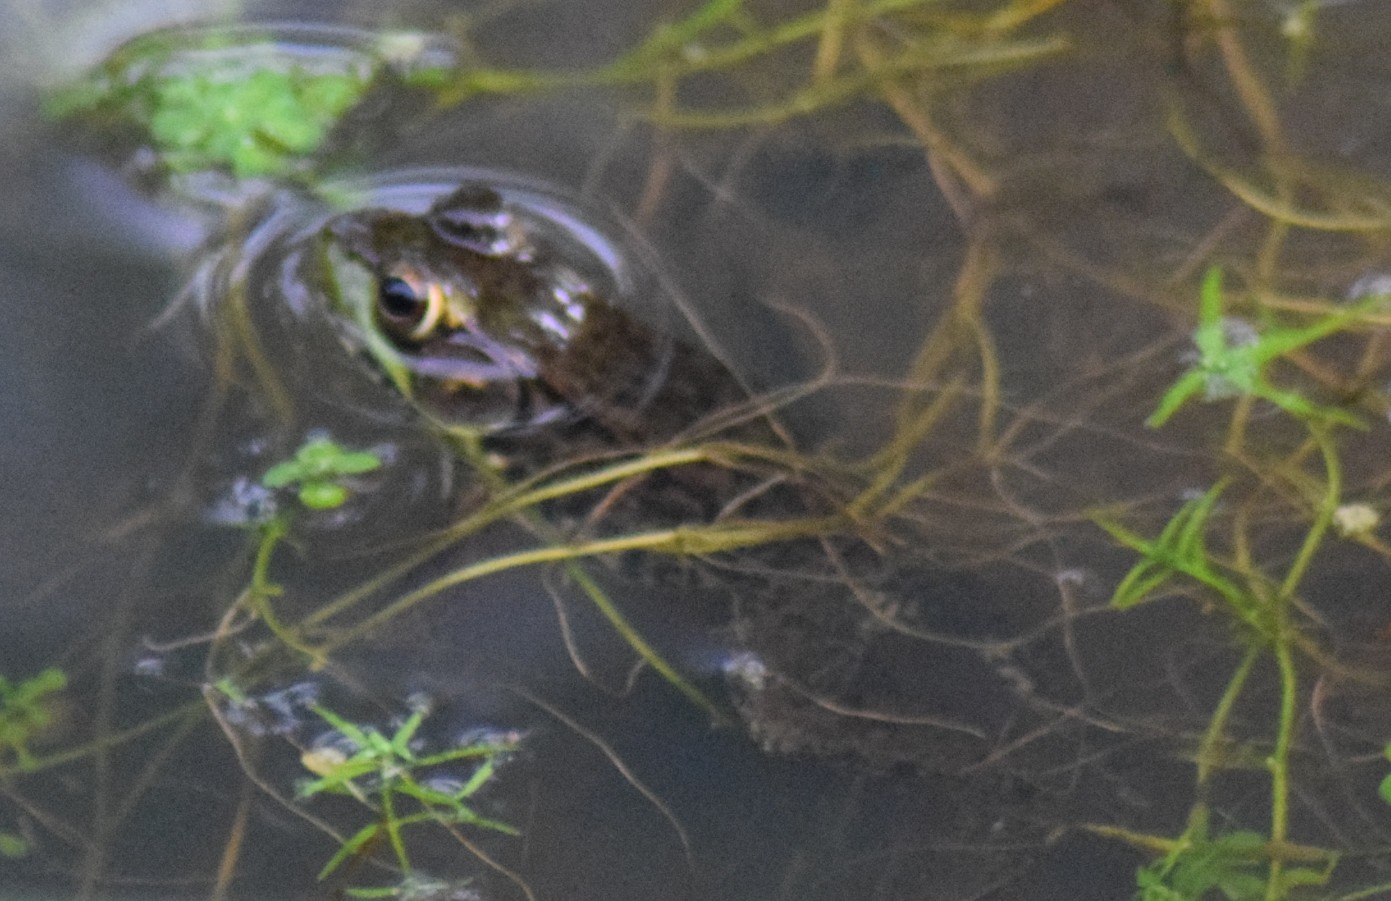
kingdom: Animalia
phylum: Chordata
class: Amphibia
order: Anura
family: Ranidae
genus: Lithobates
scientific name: Lithobates clamitans
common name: Green frog
